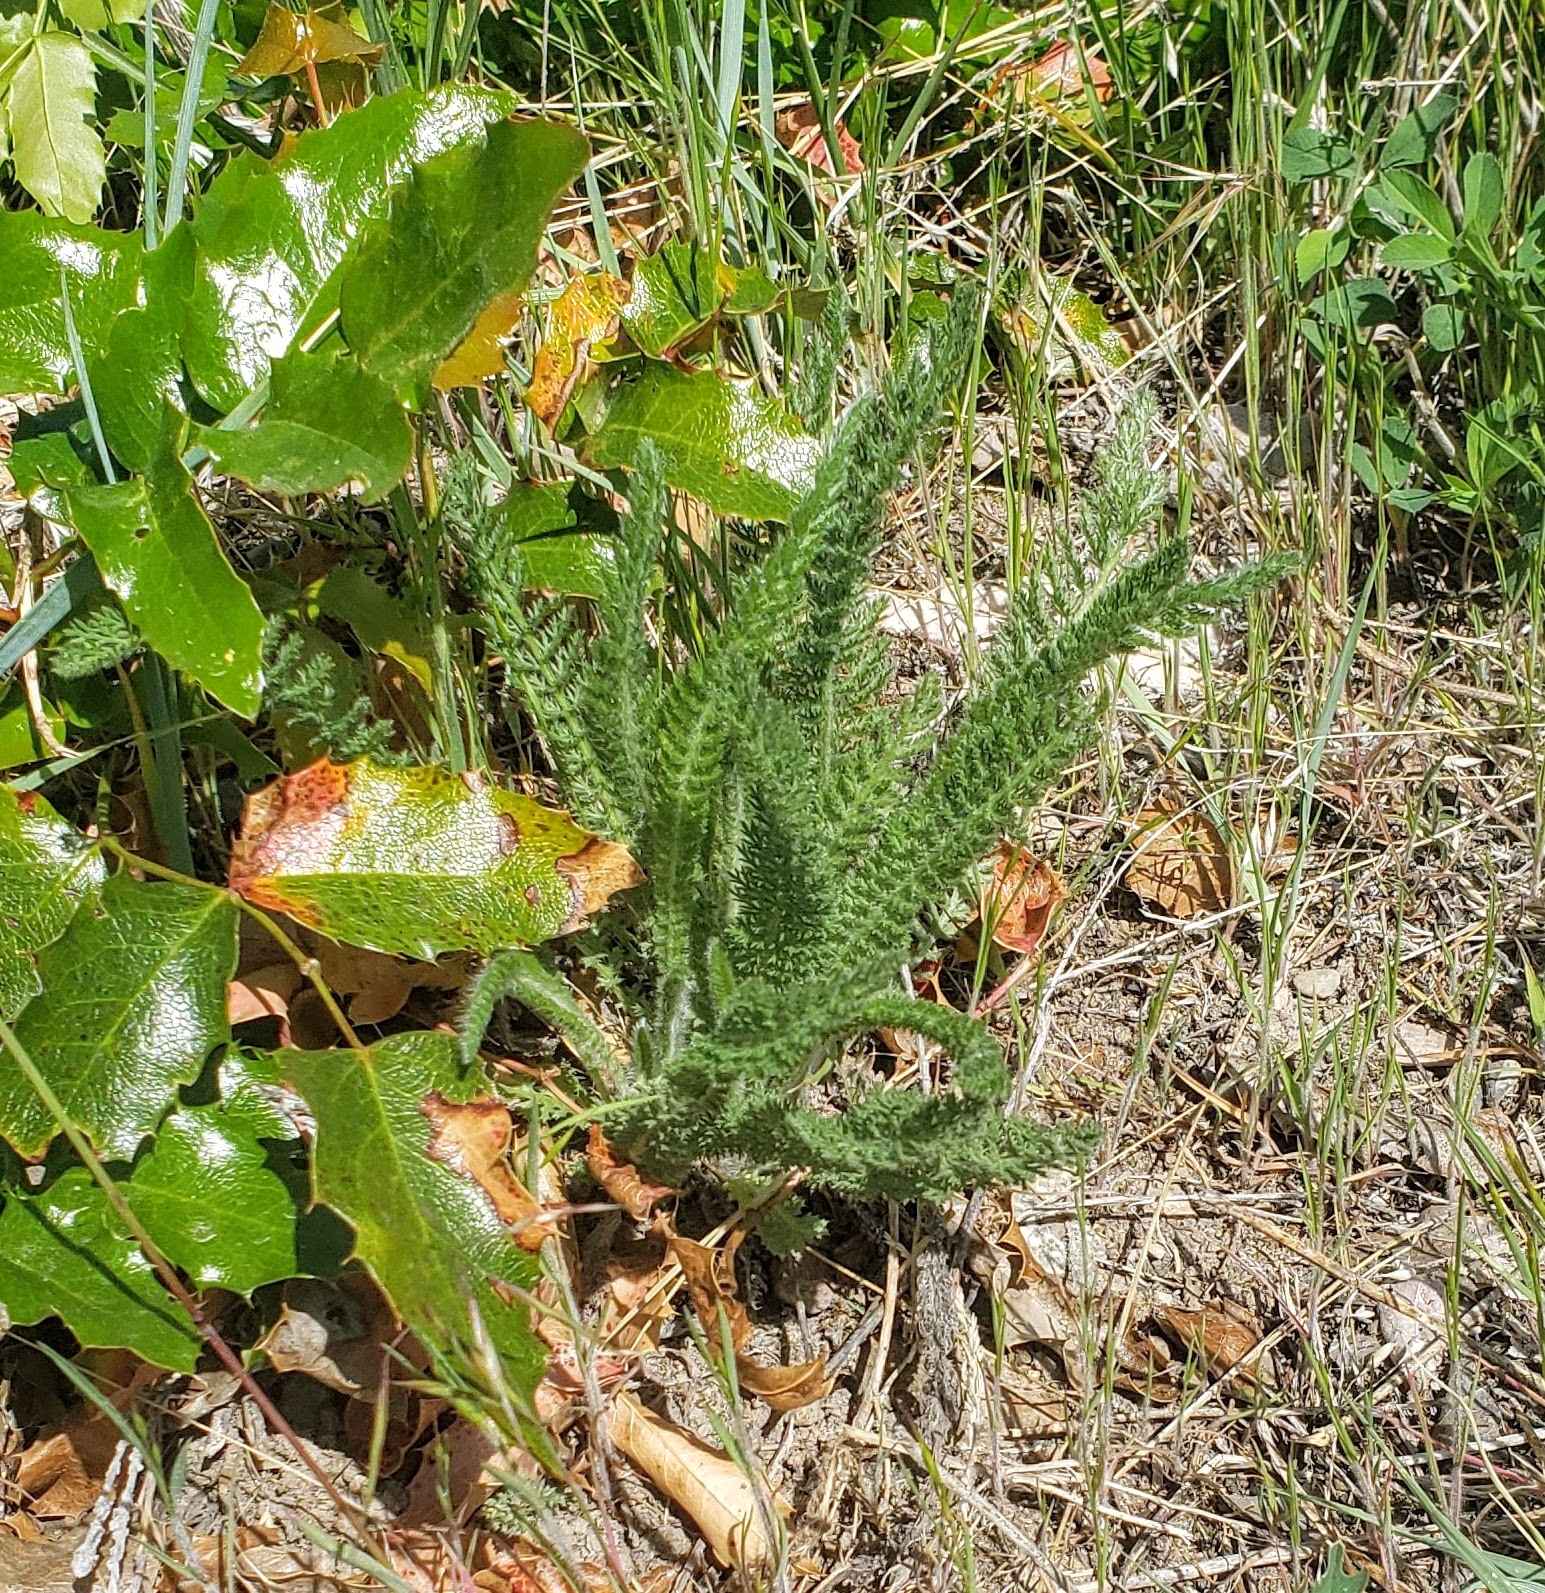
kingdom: Plantae
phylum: Tracheophyta
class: Magnoliopsida
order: Asterales
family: Asteraceae
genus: Achillea
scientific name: Achillea millefolium
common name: Yarrow
